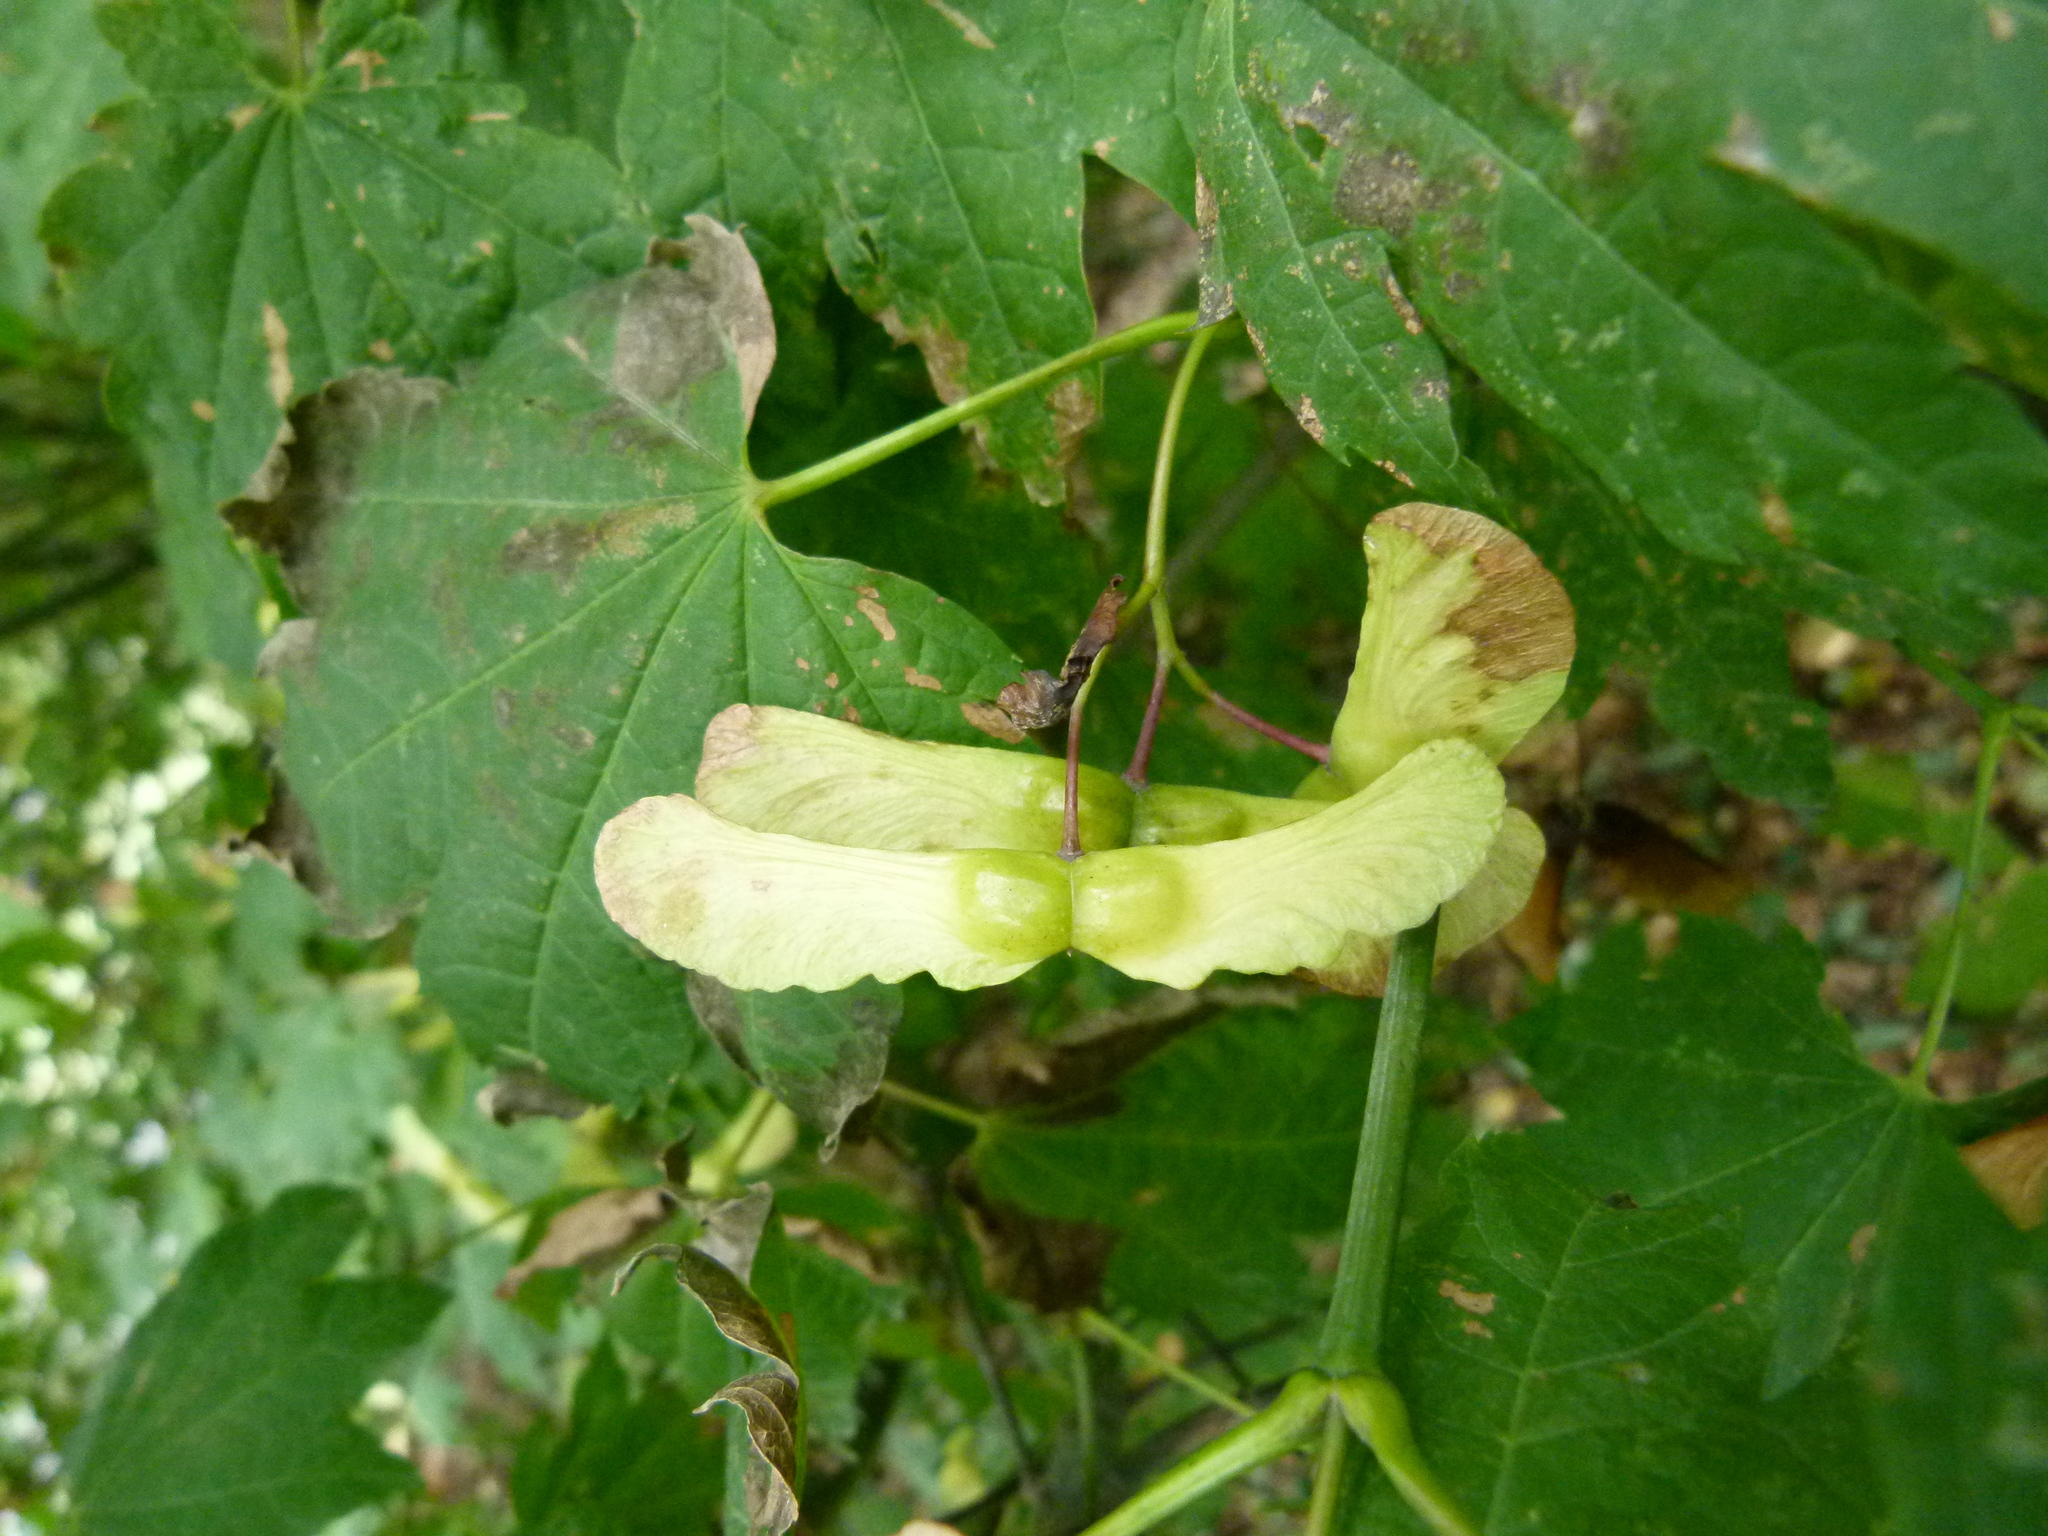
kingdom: Plantae
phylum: Tracheophyta
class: Magnoliopsida
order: Sapindales
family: Sapindaceae
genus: Acer
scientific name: Acer circinatum
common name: Vine maple
